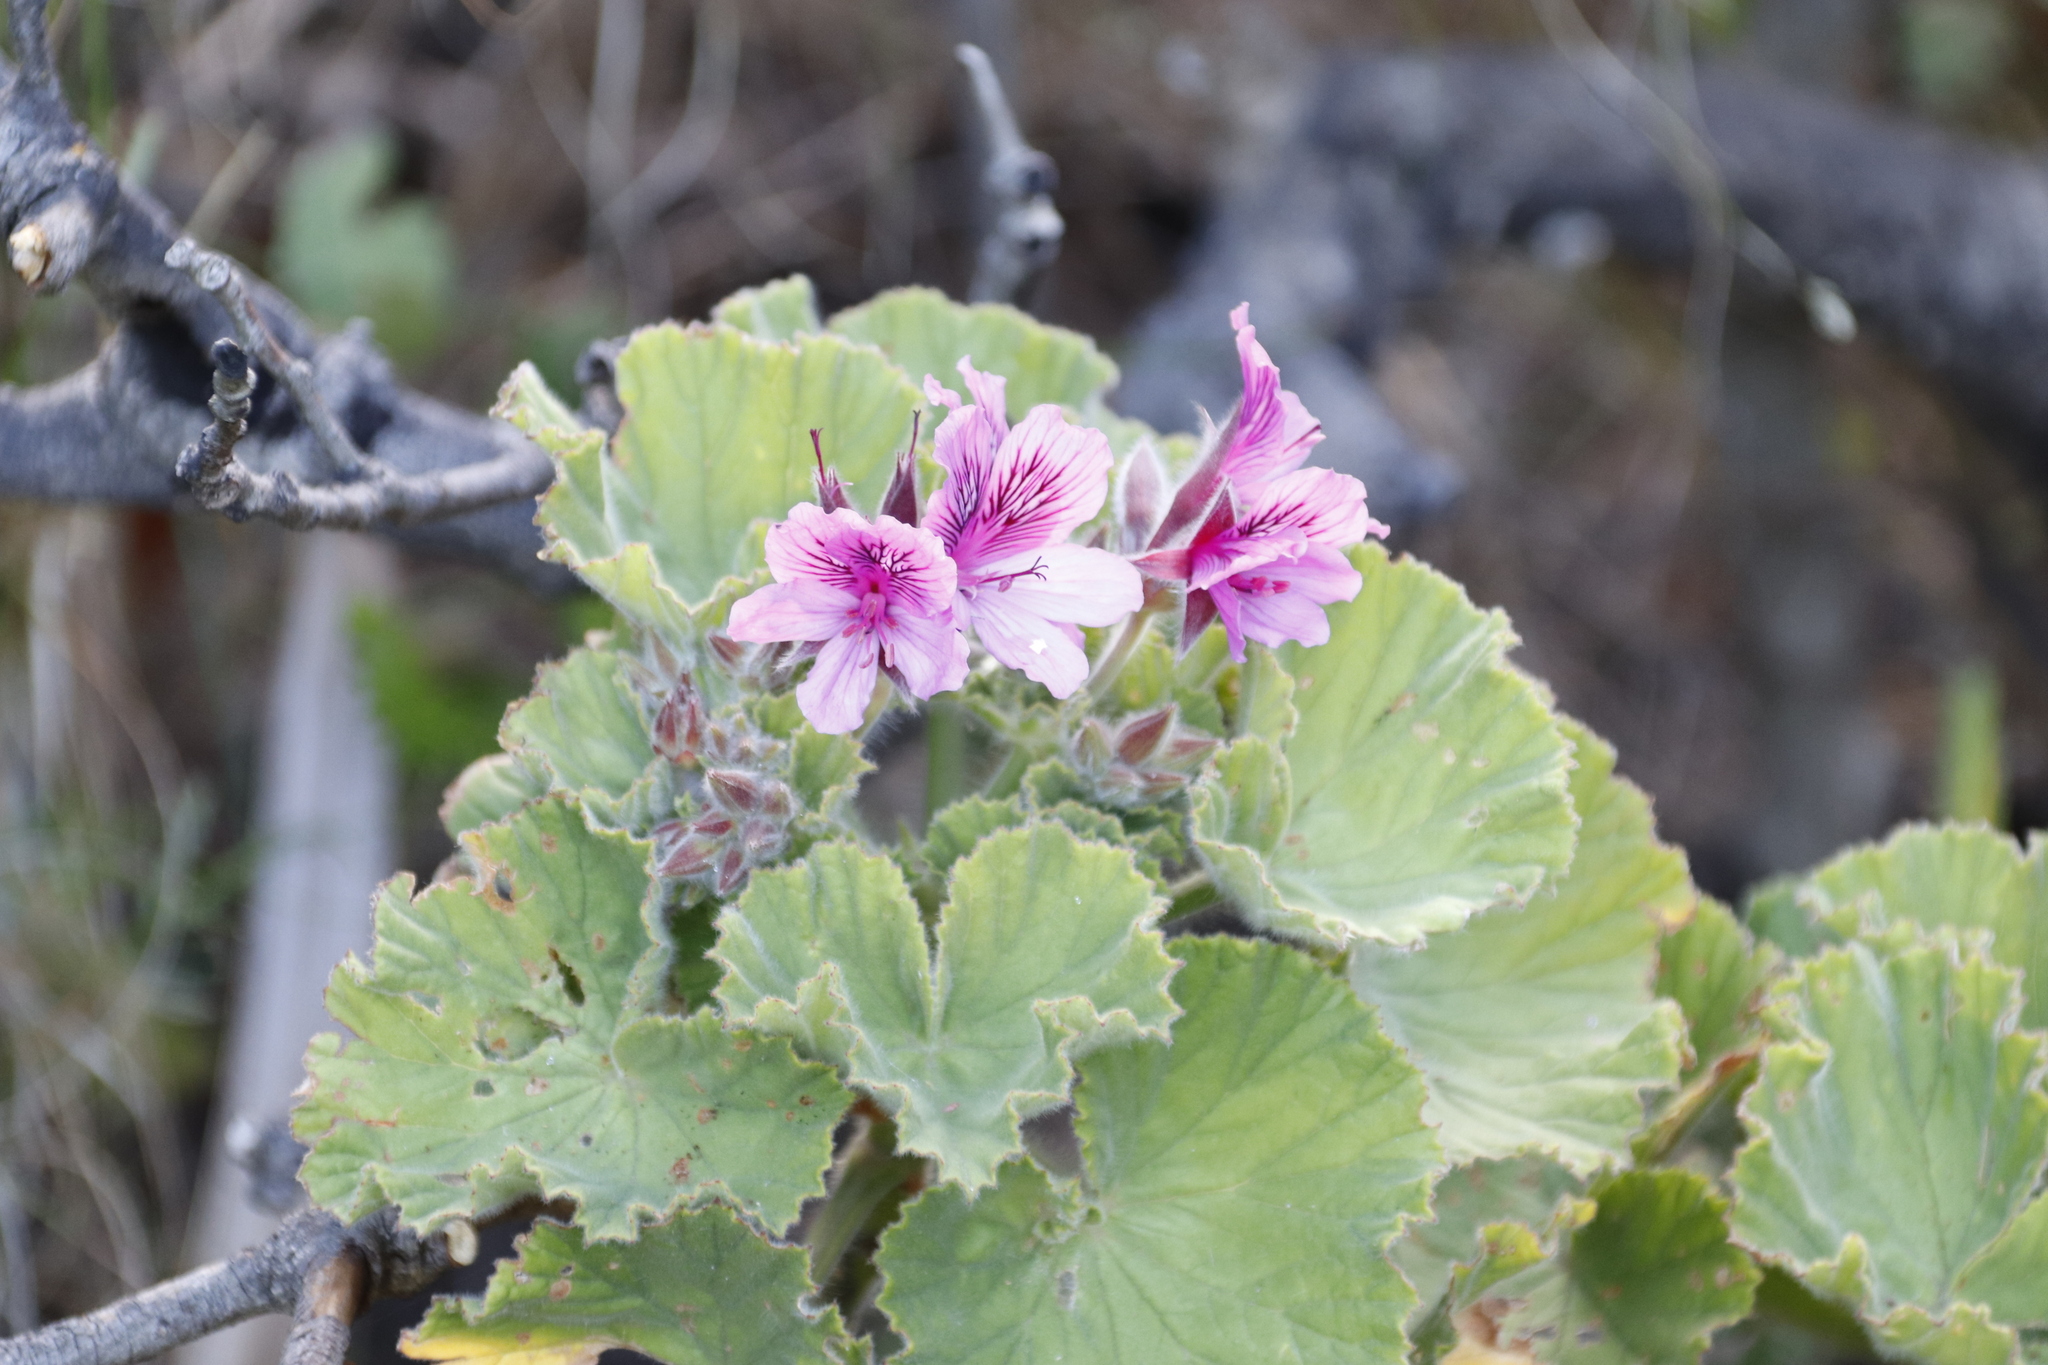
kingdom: Plantae
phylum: Tracheophyta
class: Magnoliopsida
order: Geraniales
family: Geraniaceae
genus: Pelargonium
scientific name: Pelargonium cucullatum
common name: Tree pelargonium
